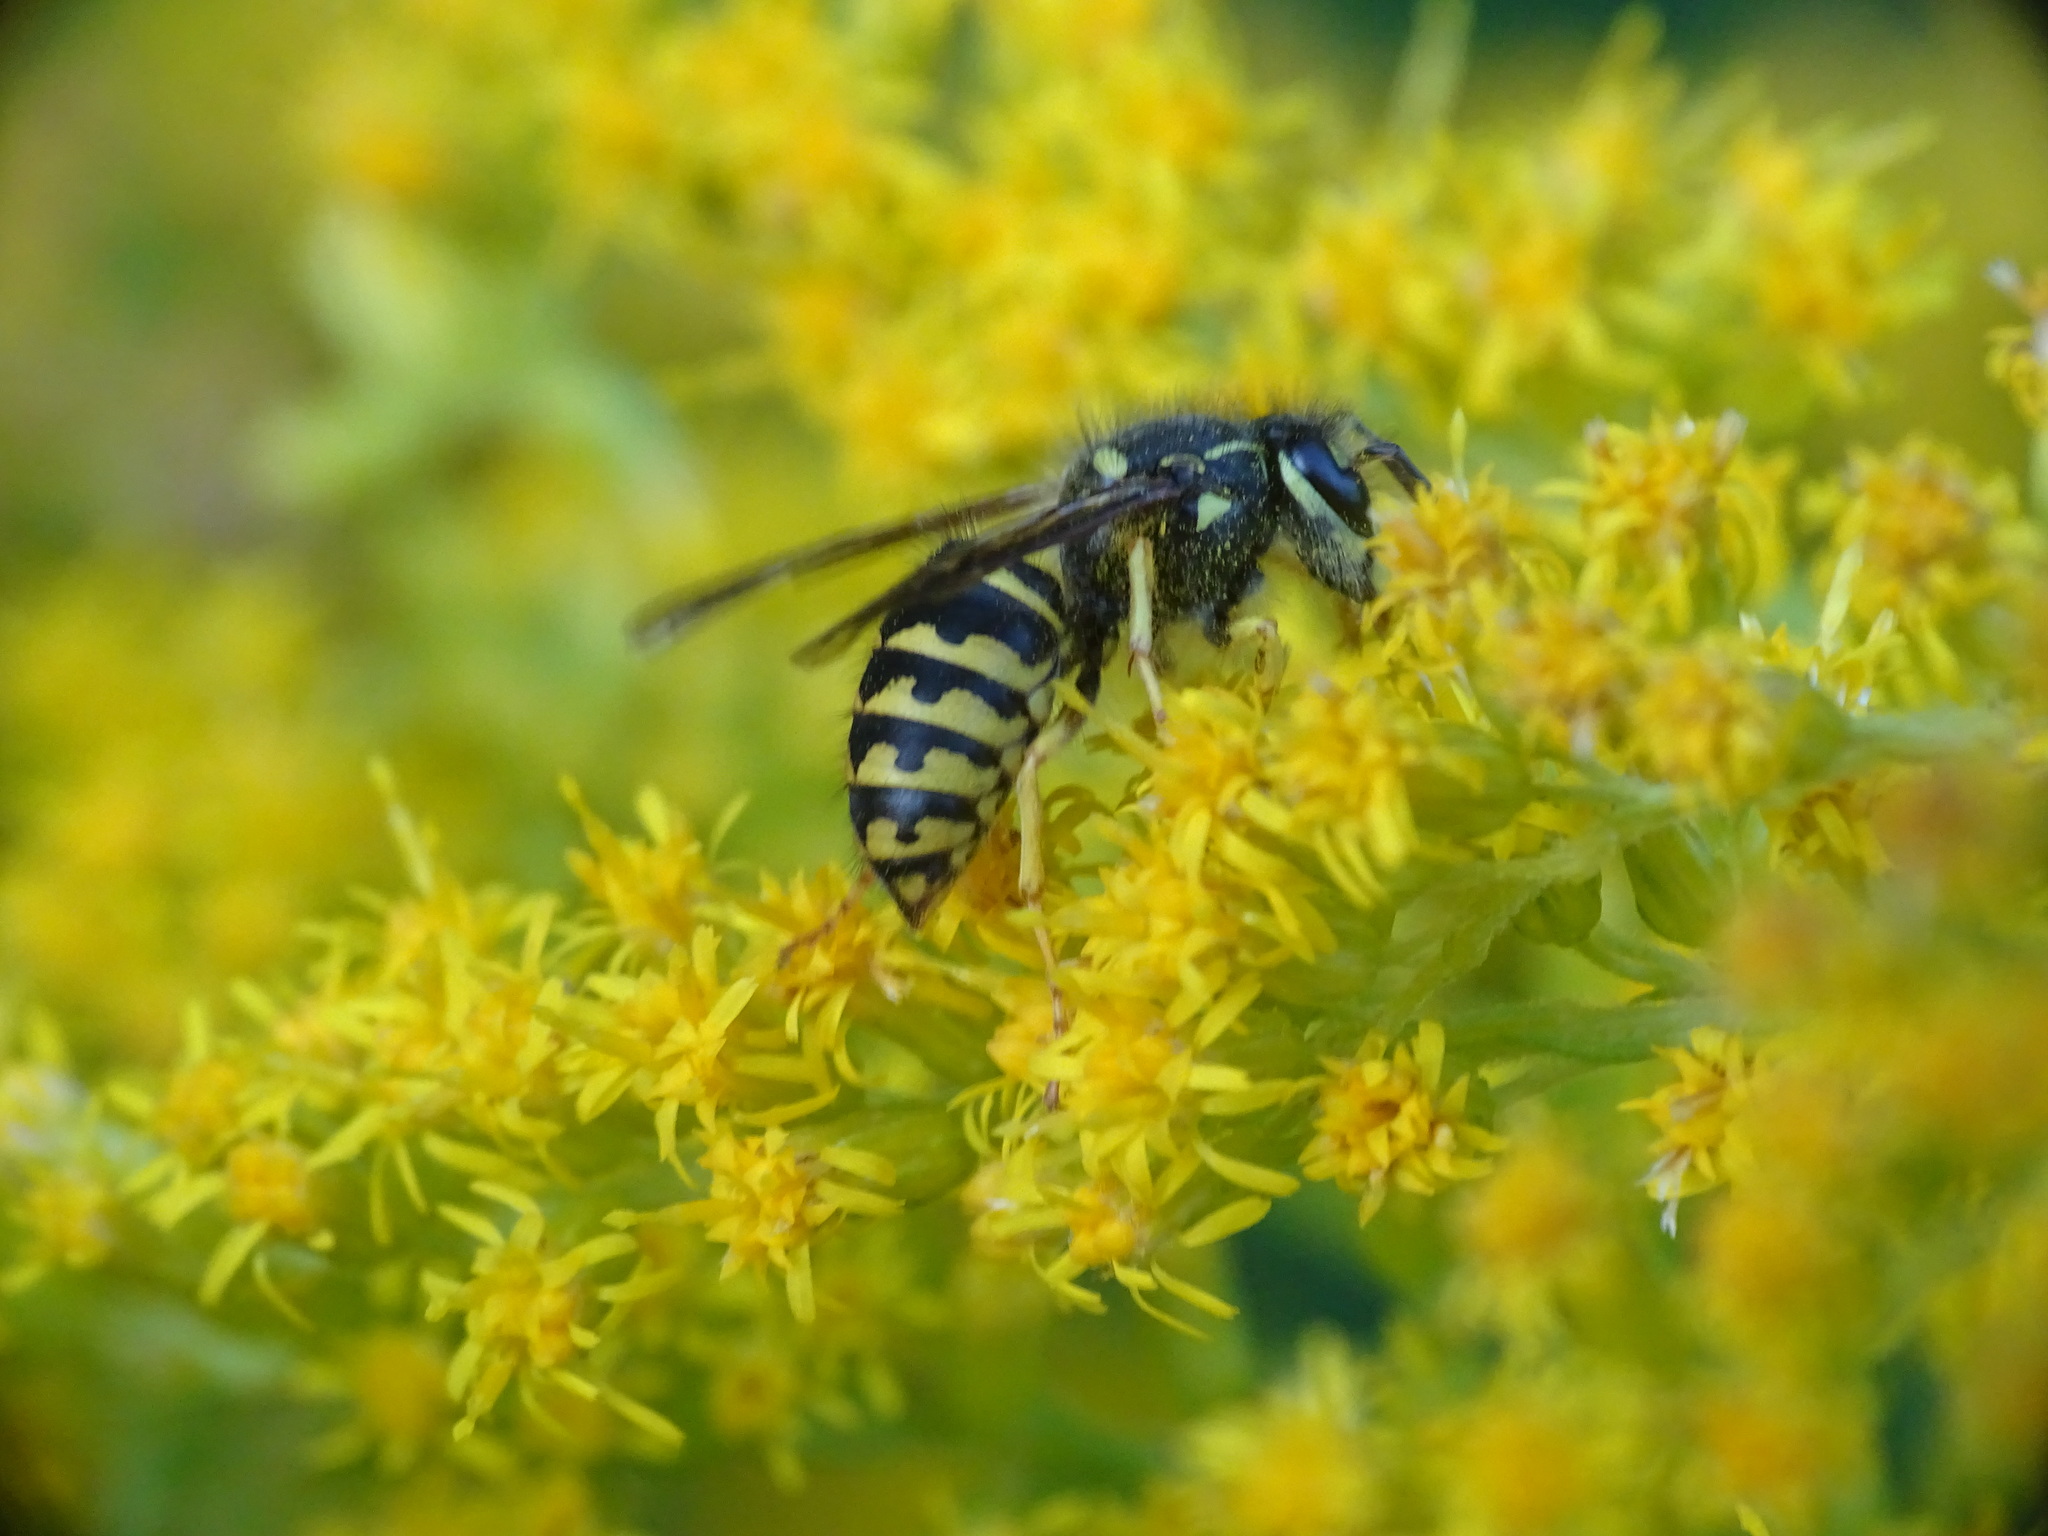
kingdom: Animalia
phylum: Arthropoda
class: Insecta
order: Hymenoptera
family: Vespidae
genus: Dolichovespula
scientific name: Dolichovespula arenaria
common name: Aerial yellowjacket
